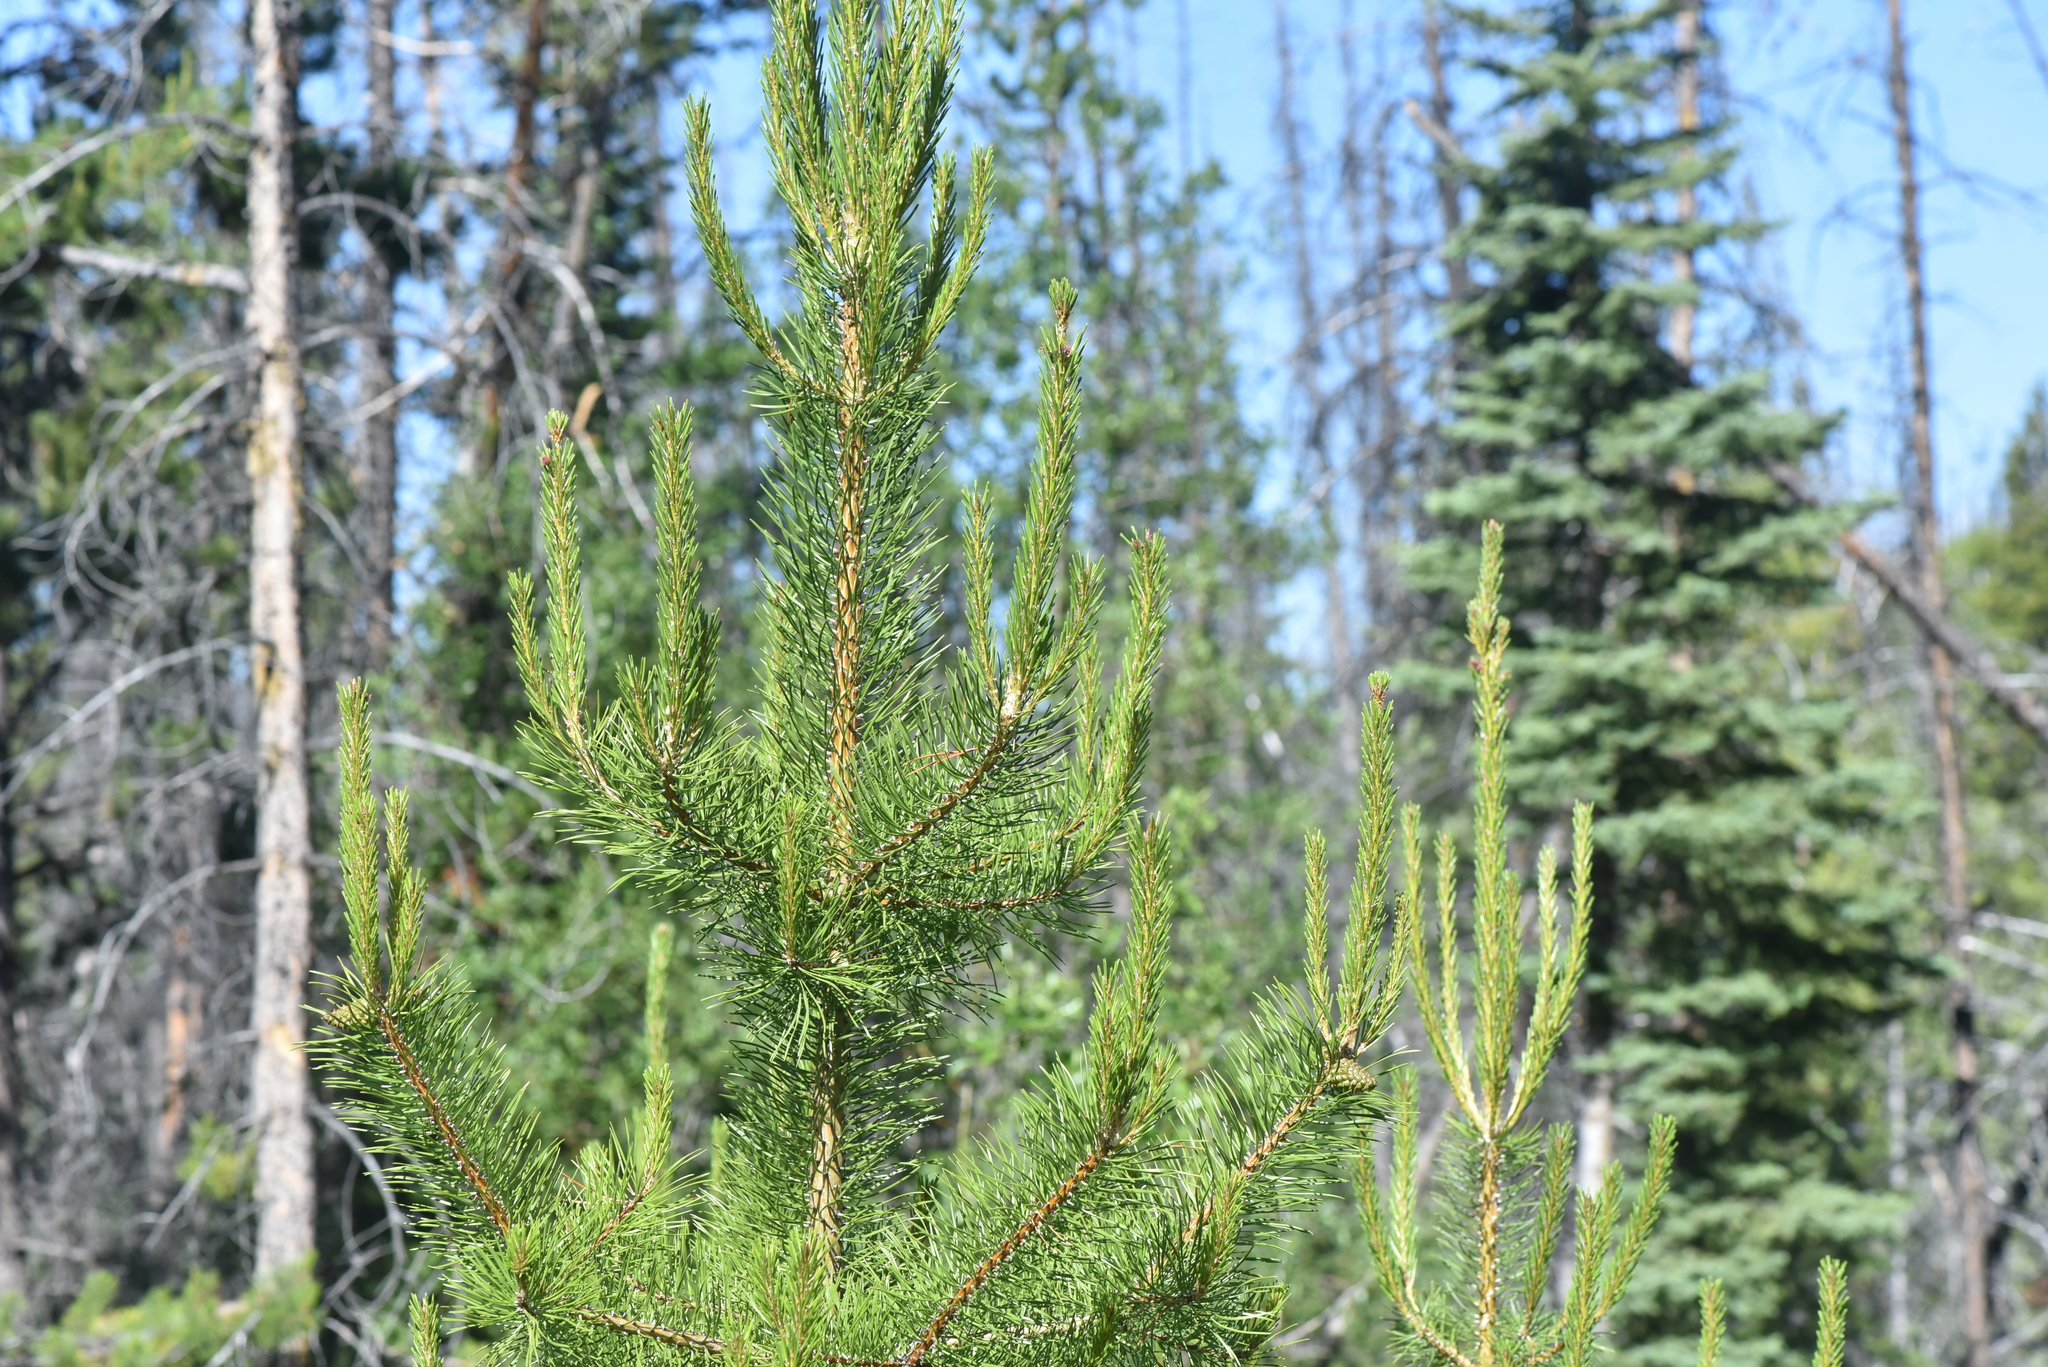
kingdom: Plantae
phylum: Tracheophyta
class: Pinopsida
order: Pinales
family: Pinaceae
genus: Pinus
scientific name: Pinus contorta
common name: Lodgepole pine
